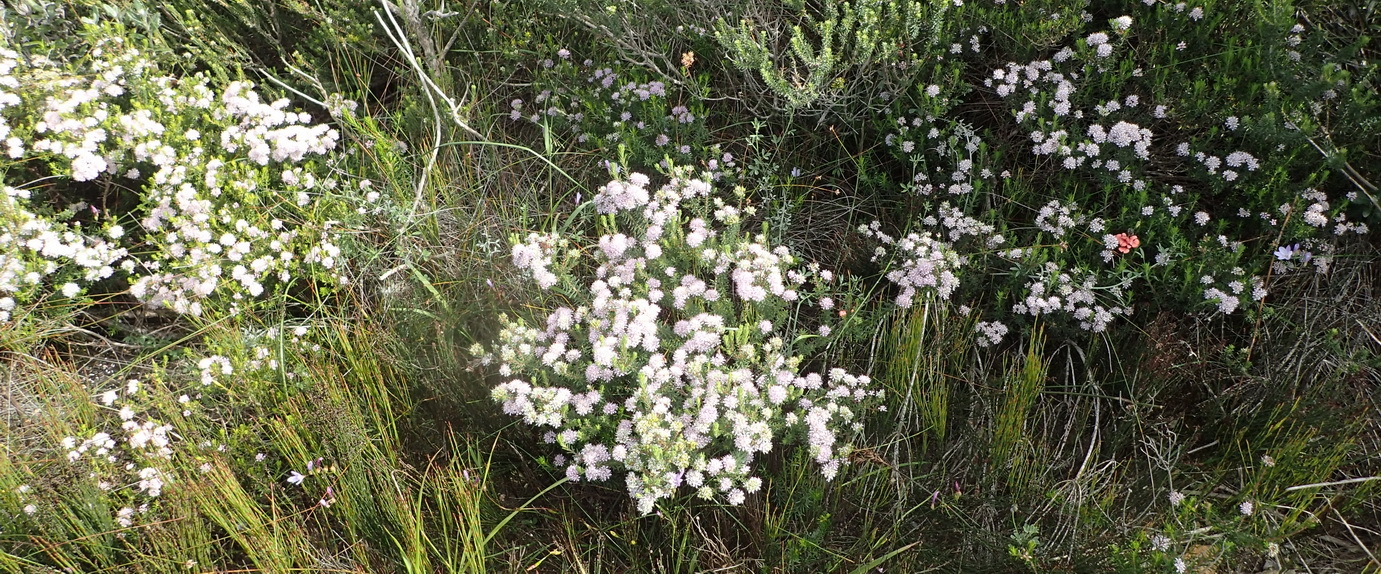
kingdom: Plantae
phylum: Tracheophyta
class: Magnoliopsida
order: Sapindales
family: Rutaceae
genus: Agathosma
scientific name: Agathosma cerefolia
